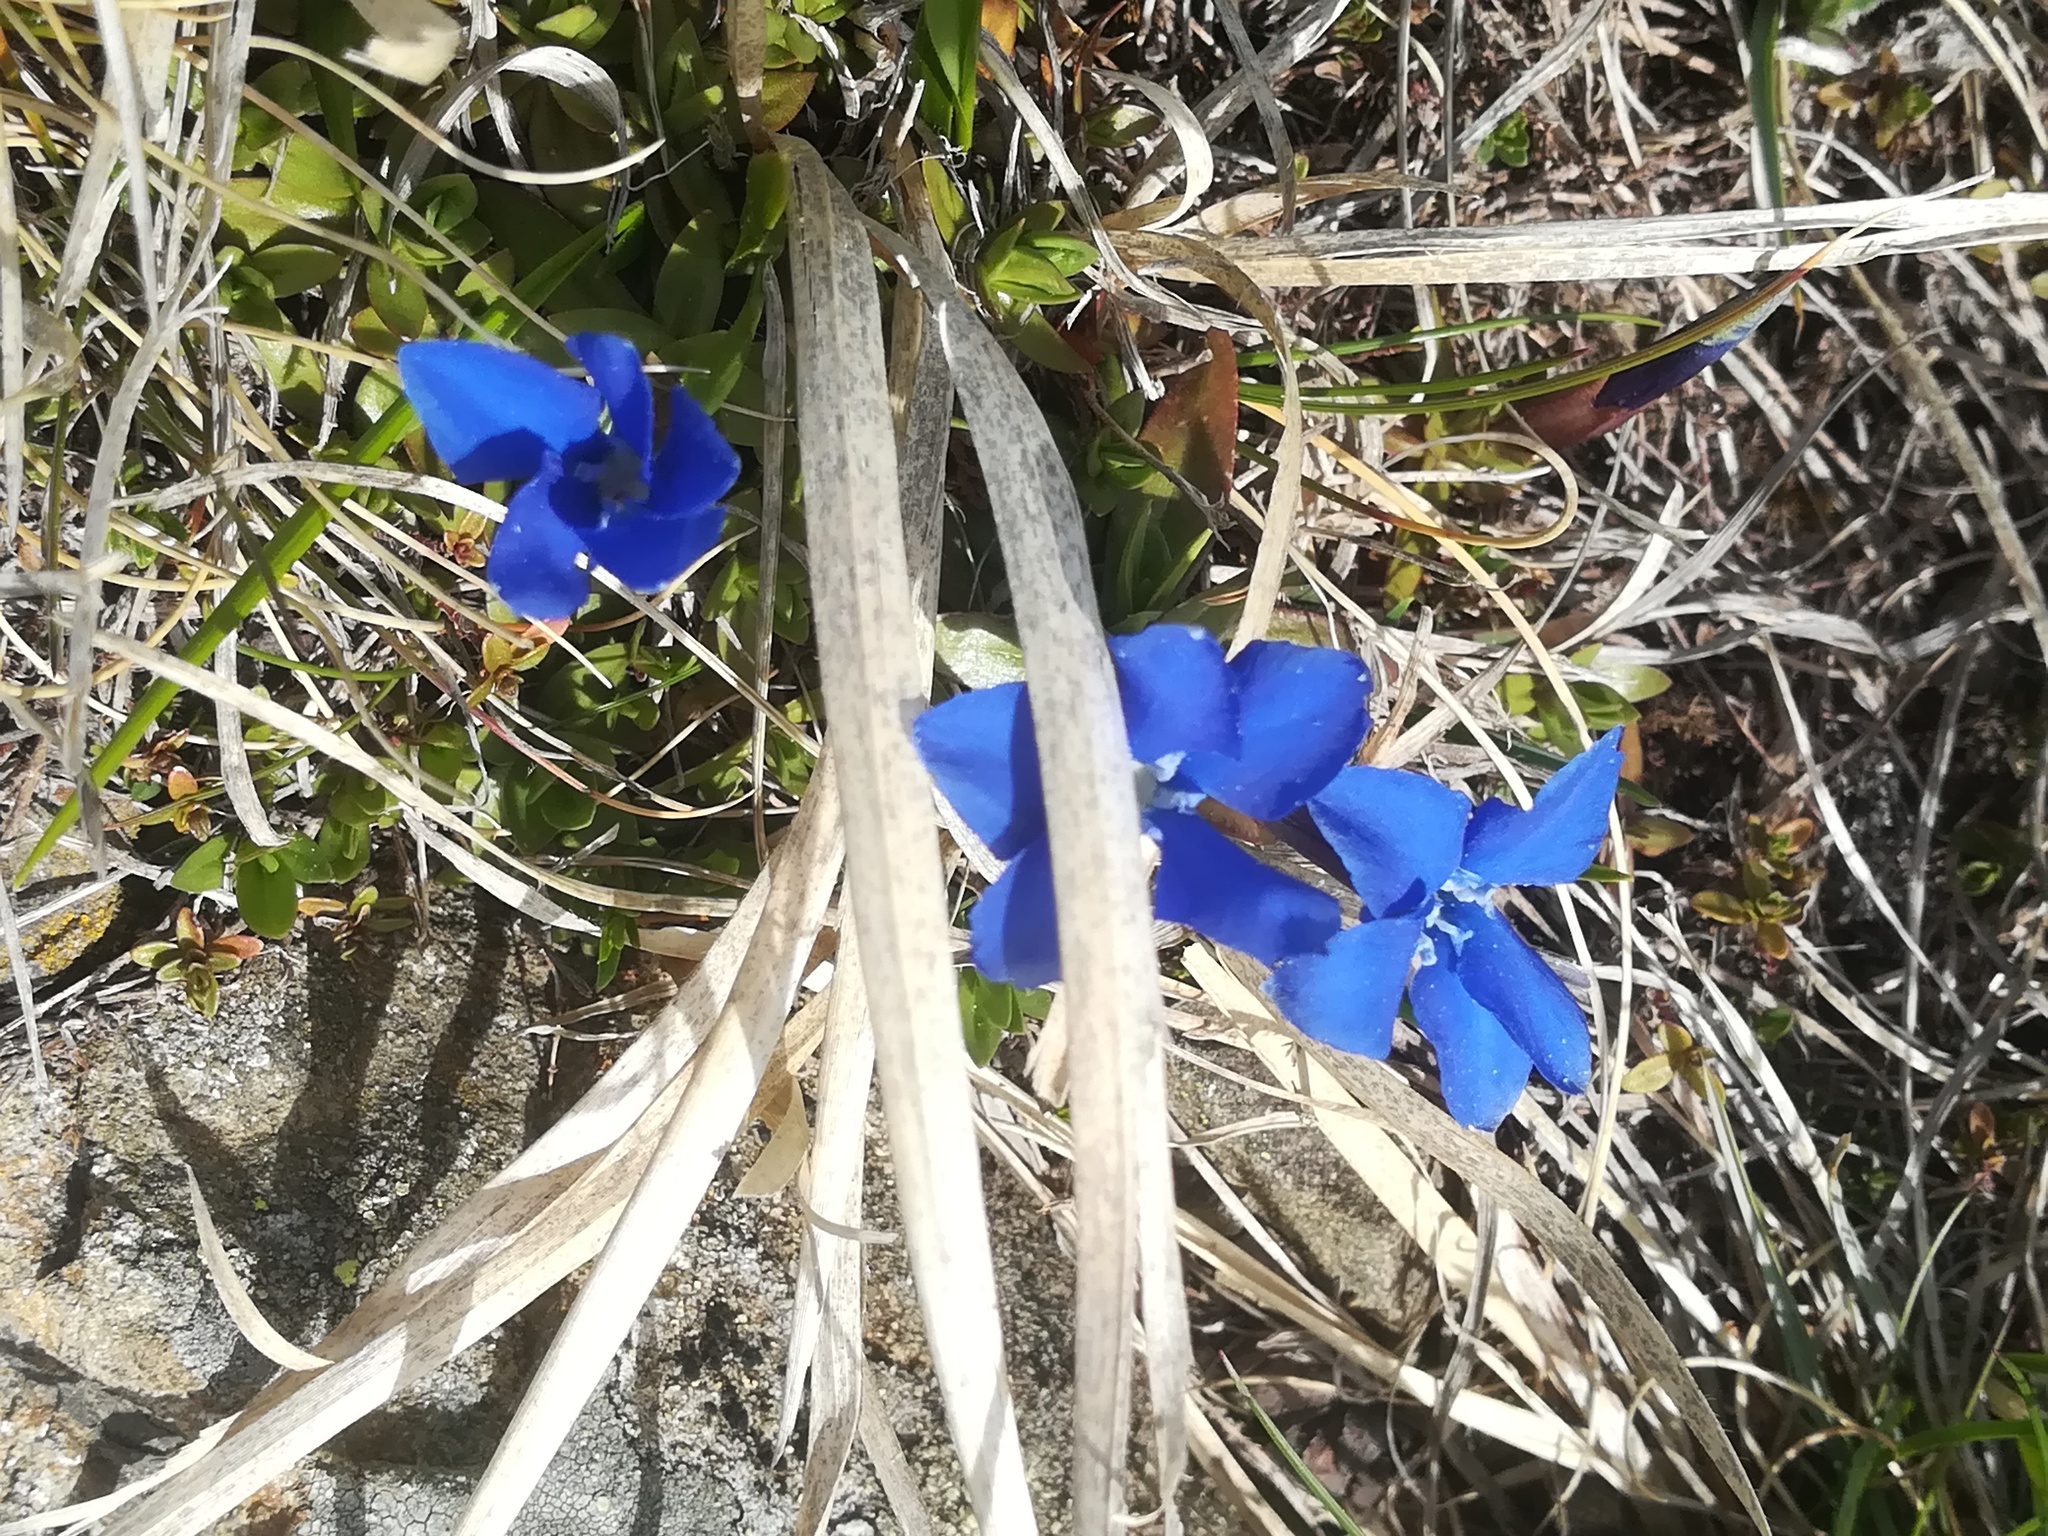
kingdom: Plantae
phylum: Tracheophyta
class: Magnoliopsida
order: Gentianales
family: Gentianaceae
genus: Gentiana
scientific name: Gentiana verna
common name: Spring gentian
